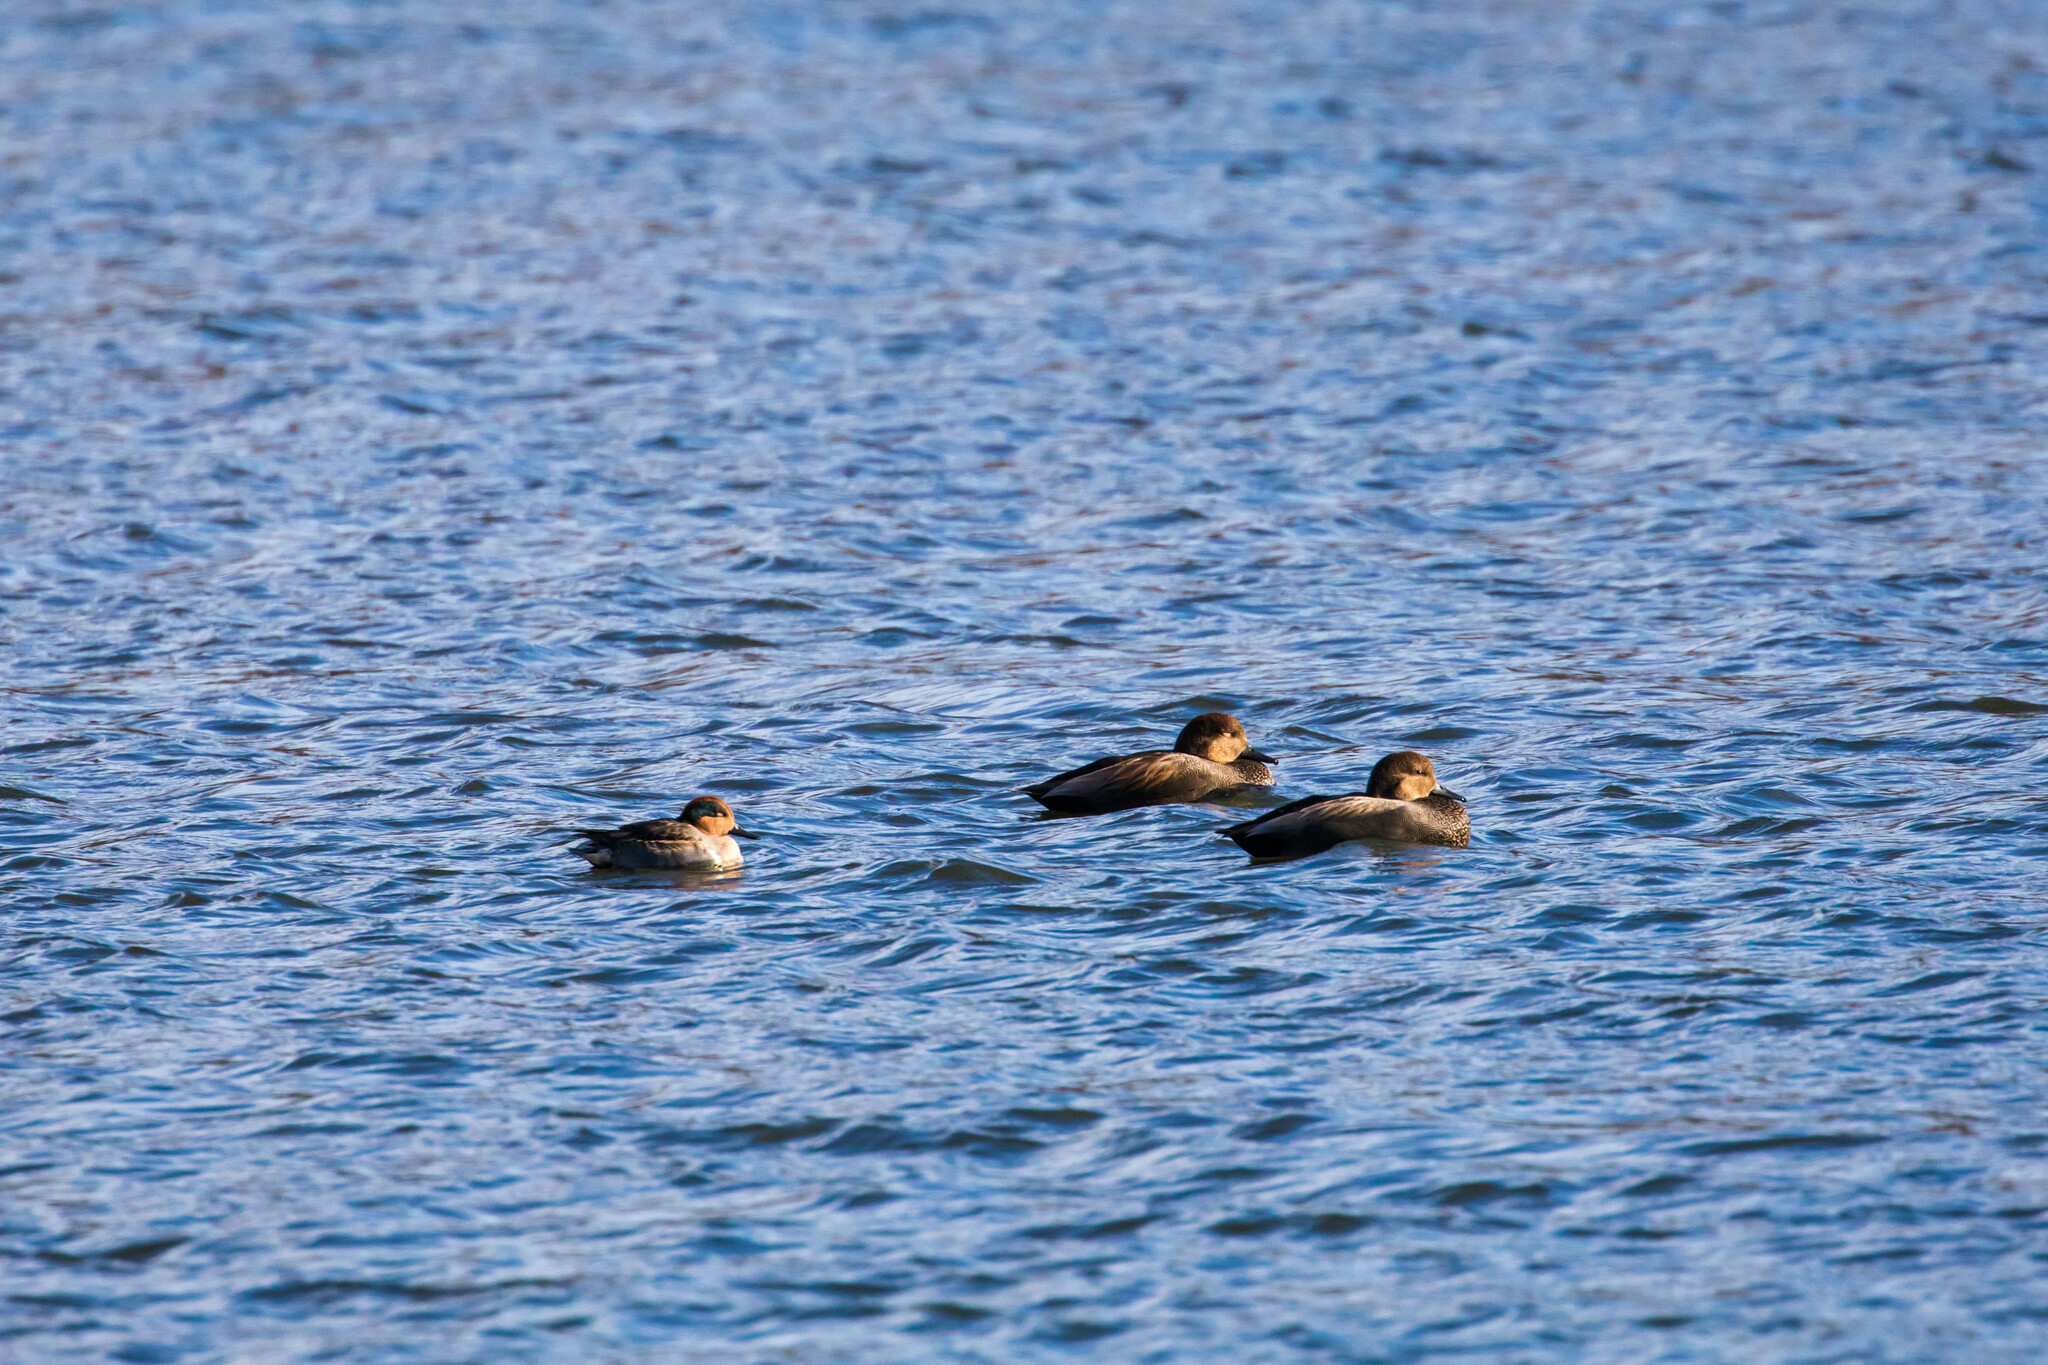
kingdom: Animalia
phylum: Chordata
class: Aves
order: Anseriformes
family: Anatidae
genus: Anas
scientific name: Anas crecca
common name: Eurasian teal
